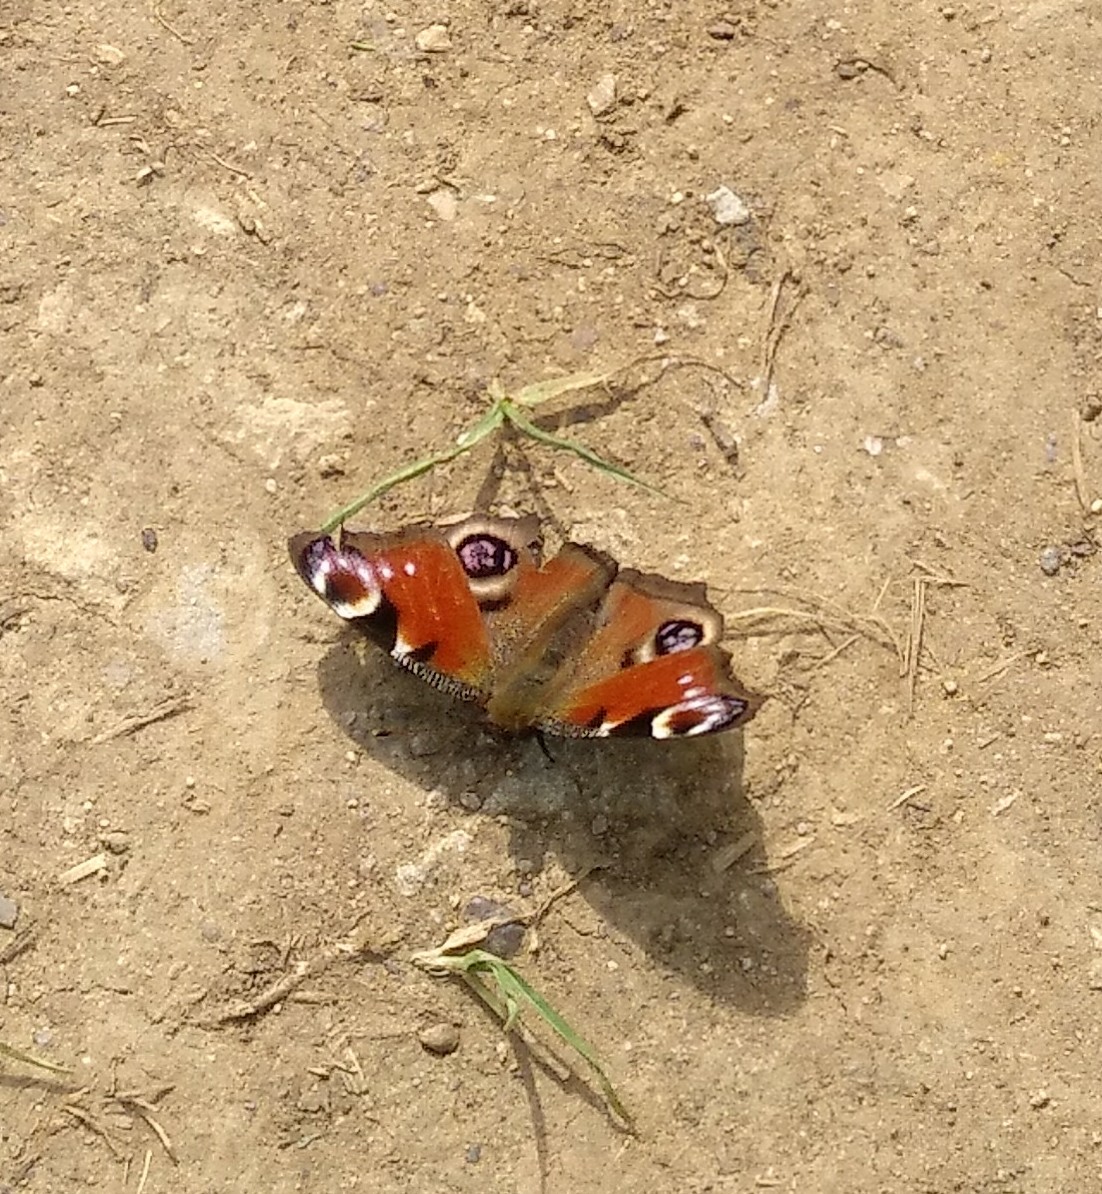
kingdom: Animalia
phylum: Arthropoda
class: Insecta
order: Lepidoptera
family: Nymphalidae
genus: Aglais
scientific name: Aglais io
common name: Peacock
